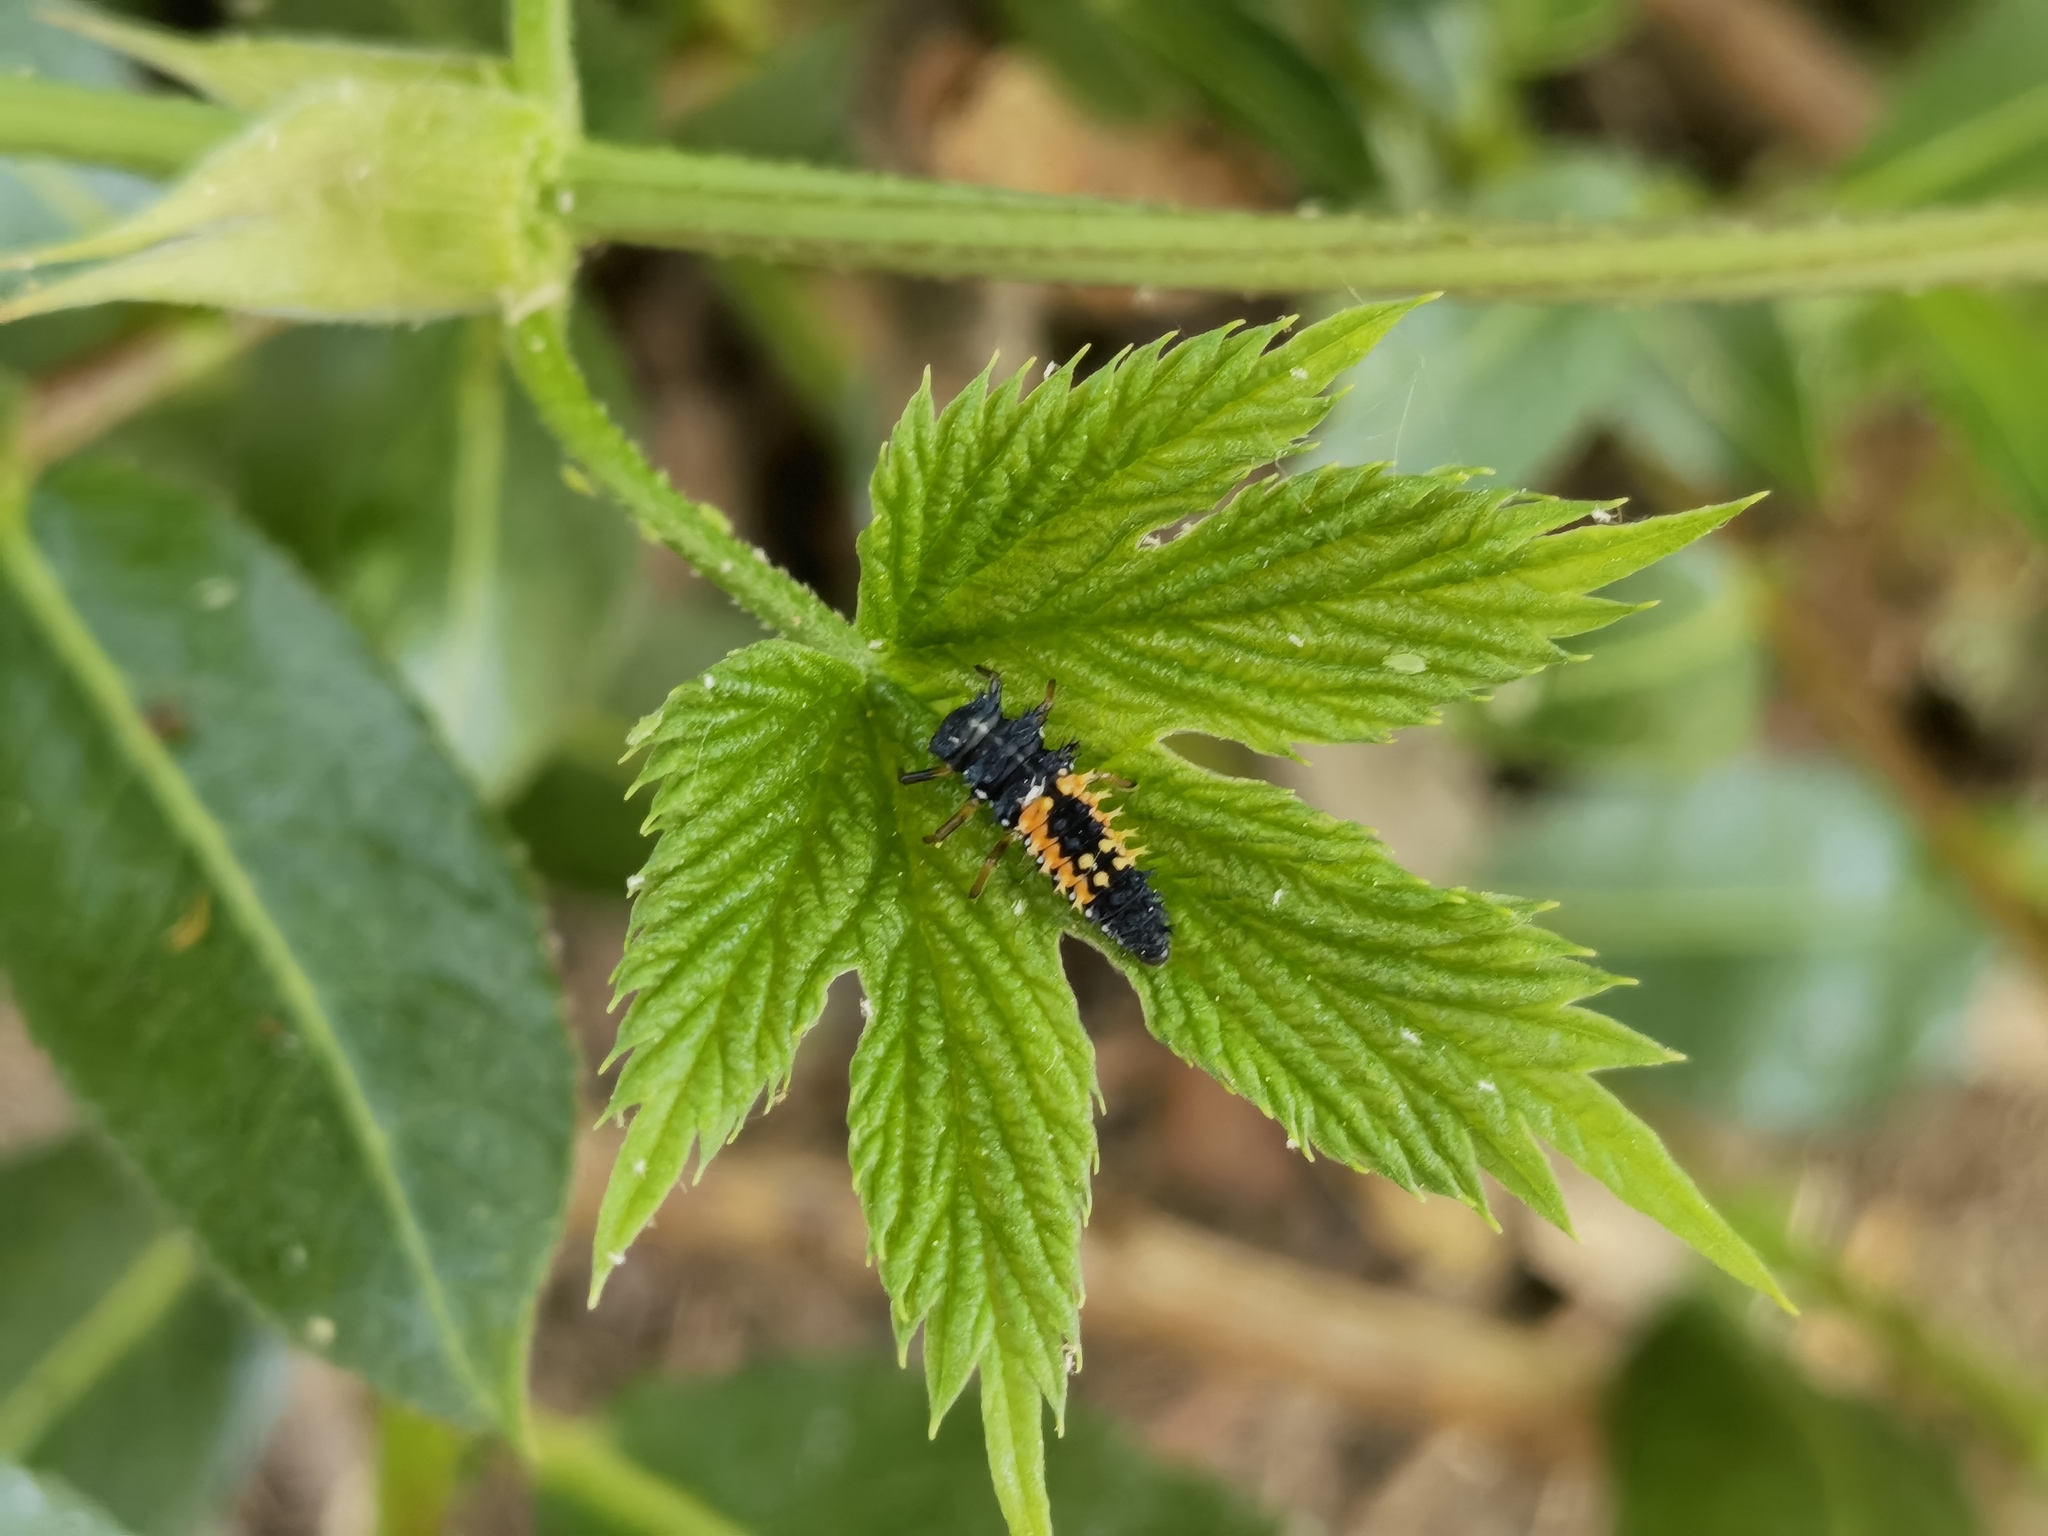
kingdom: Animalia
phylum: Arthropoda
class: Insecta
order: Coleoptera
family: Coccinellidae
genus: Harmonia
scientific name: Harmonia axyridis
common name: Harlequin ladybird
